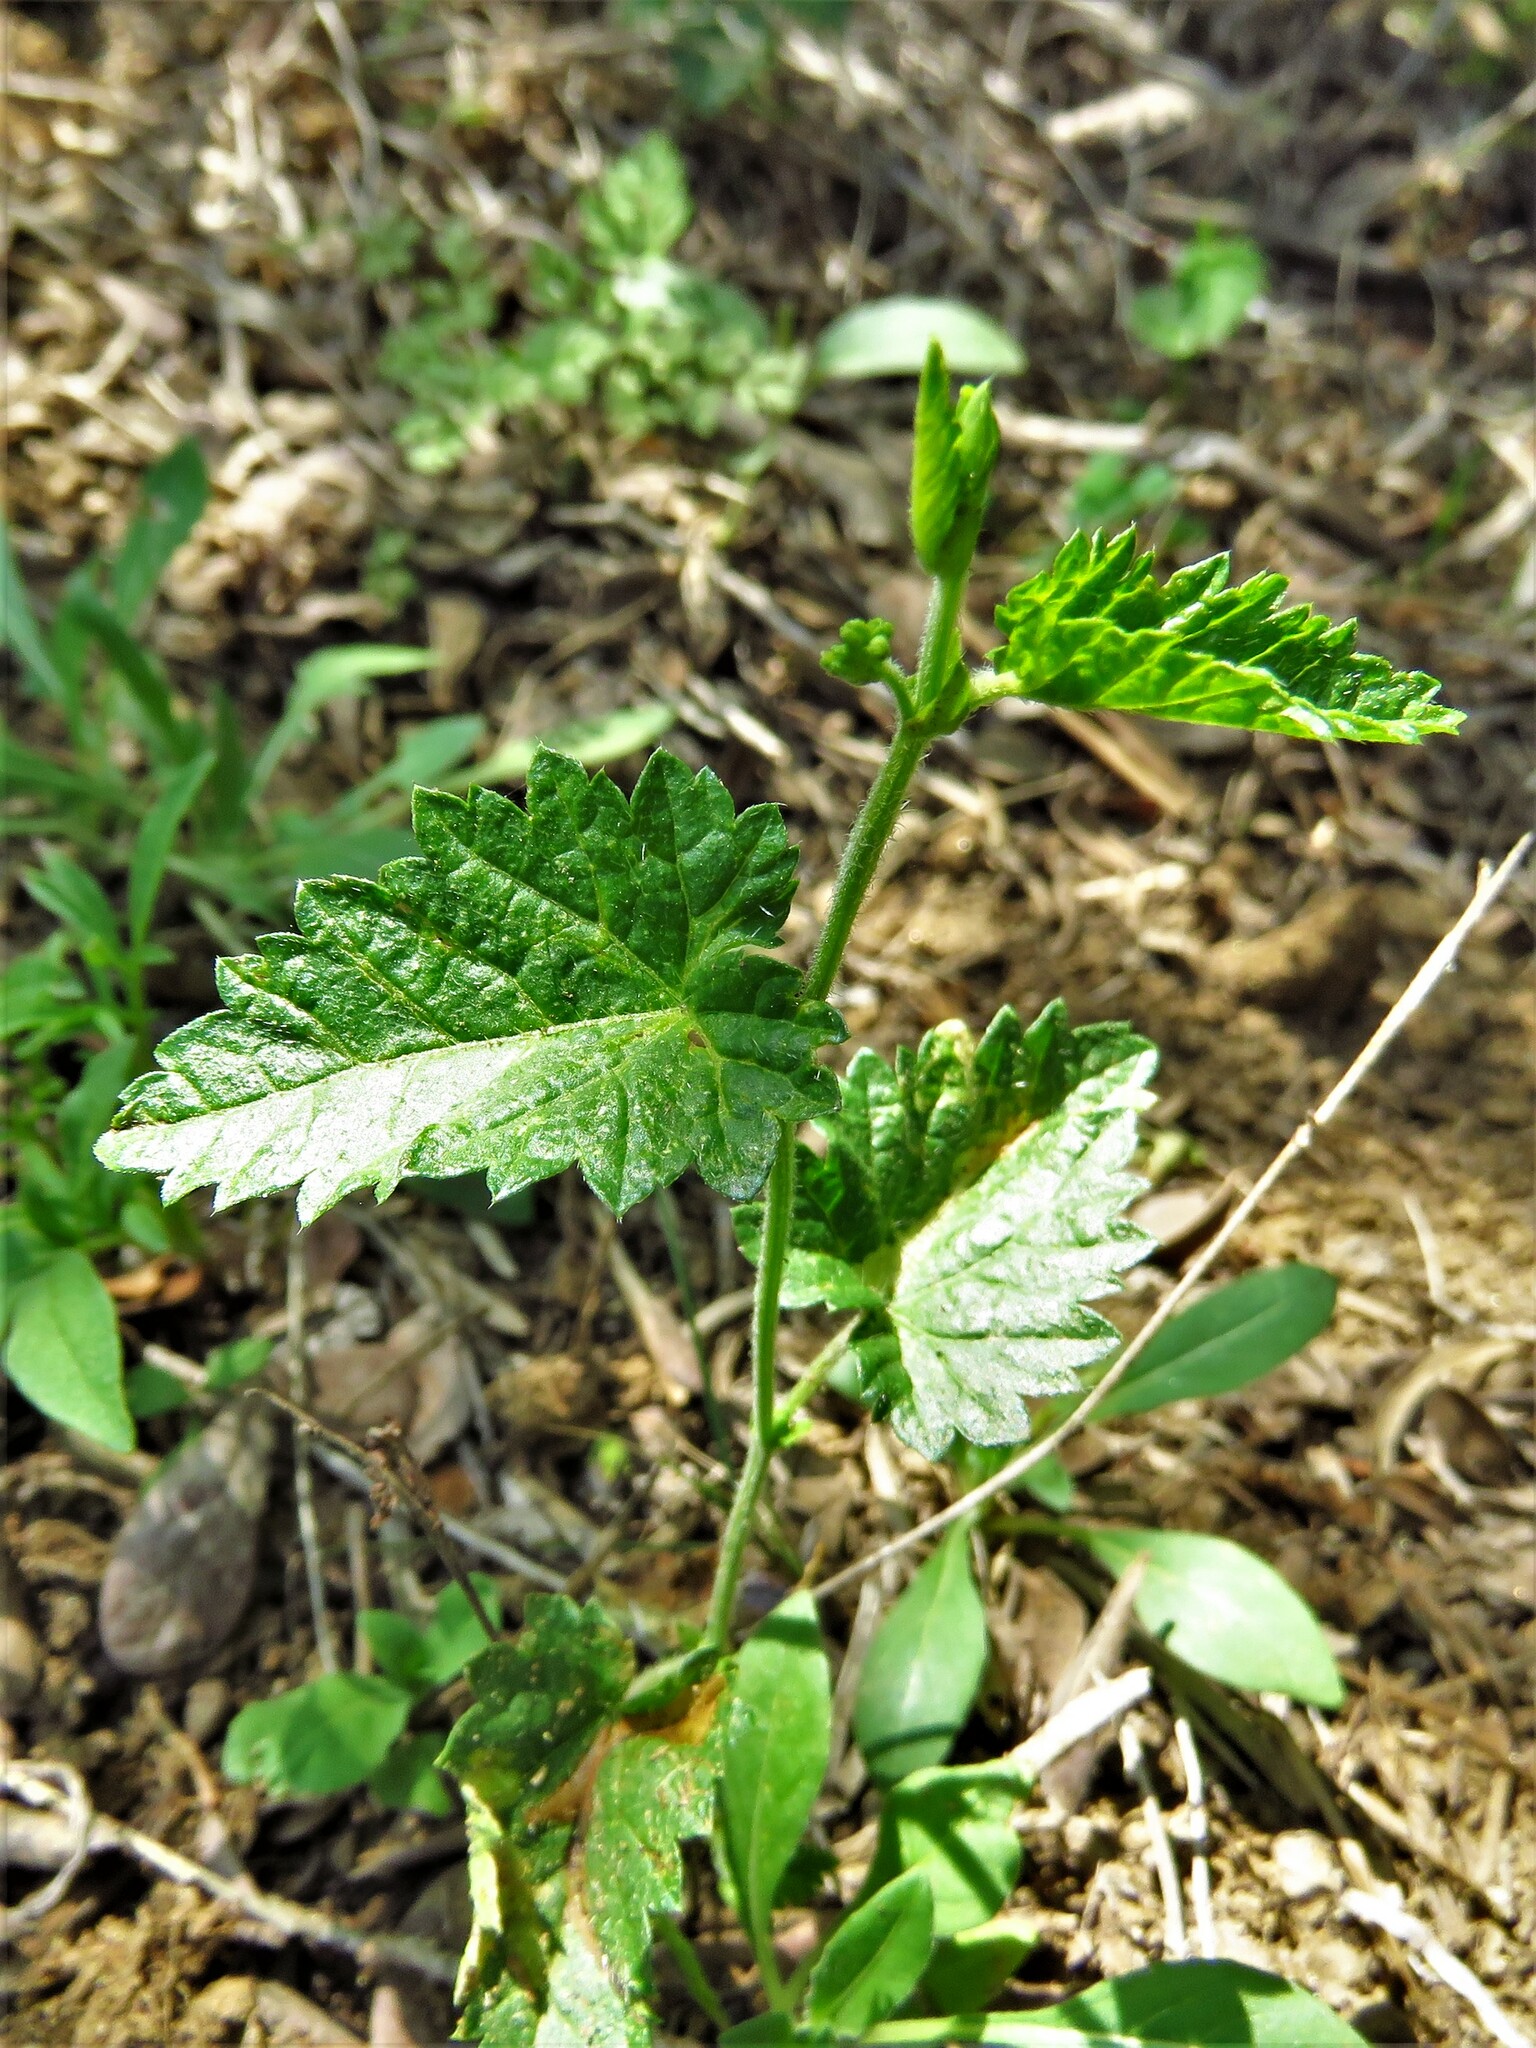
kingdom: Plantae
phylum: Tracheophyta
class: Magnoliopsida
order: Malpighiales
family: Euphorbiaceae
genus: Tragia
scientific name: Tragia urticifolia
